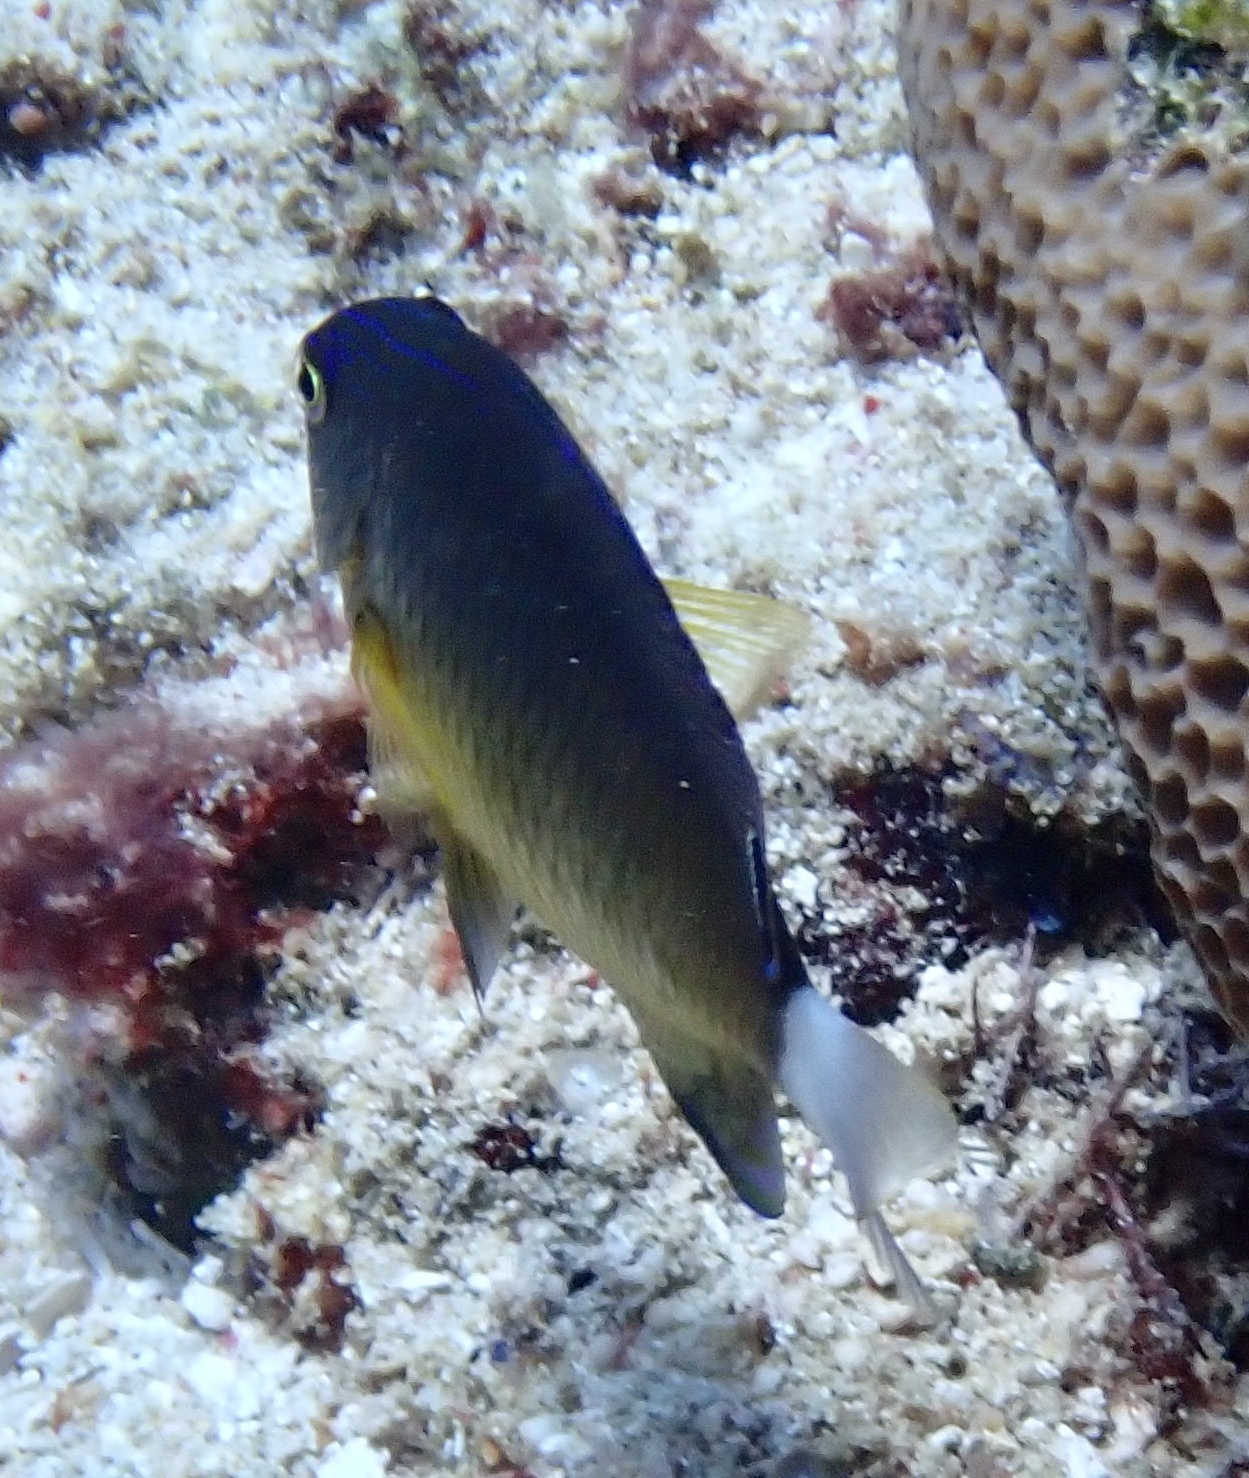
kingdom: Animalia
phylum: Chordata
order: Perciformes
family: Pomacentridae
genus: Pomacentrus
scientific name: Pomacentrus bankanensis
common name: Speckled damsel
